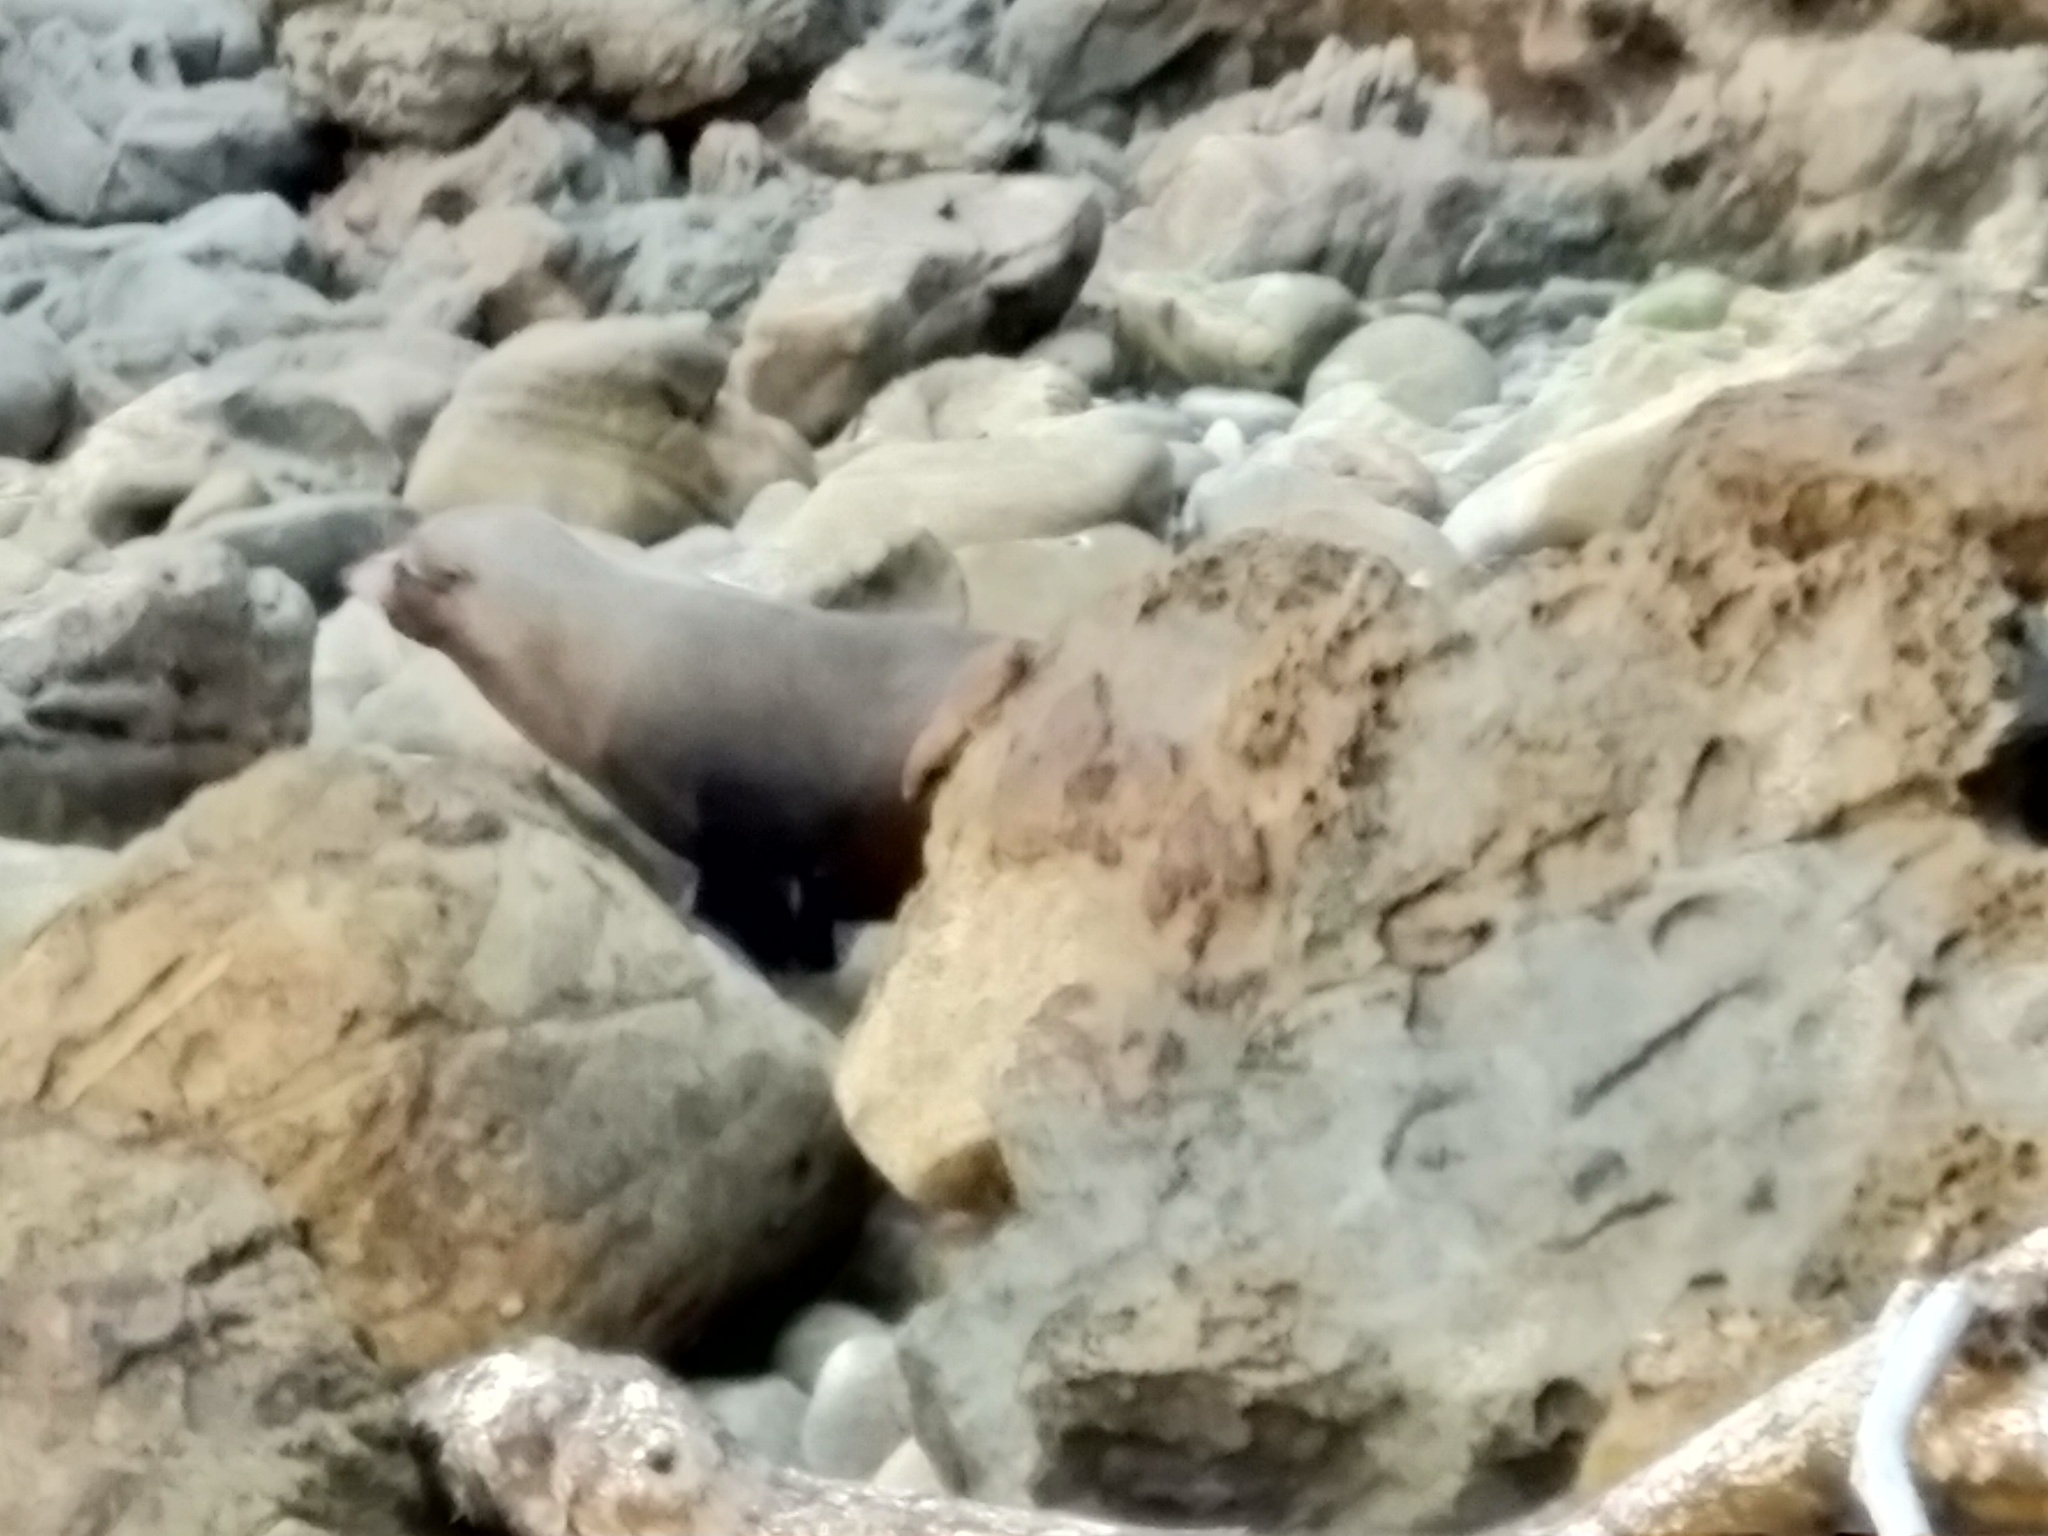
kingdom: Animalia
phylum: Chordata
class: Mammalia
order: Carnivora
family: Otariidae
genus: Arctocephalus
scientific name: Arctocephalus forsteri
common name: New zealand fur seal
